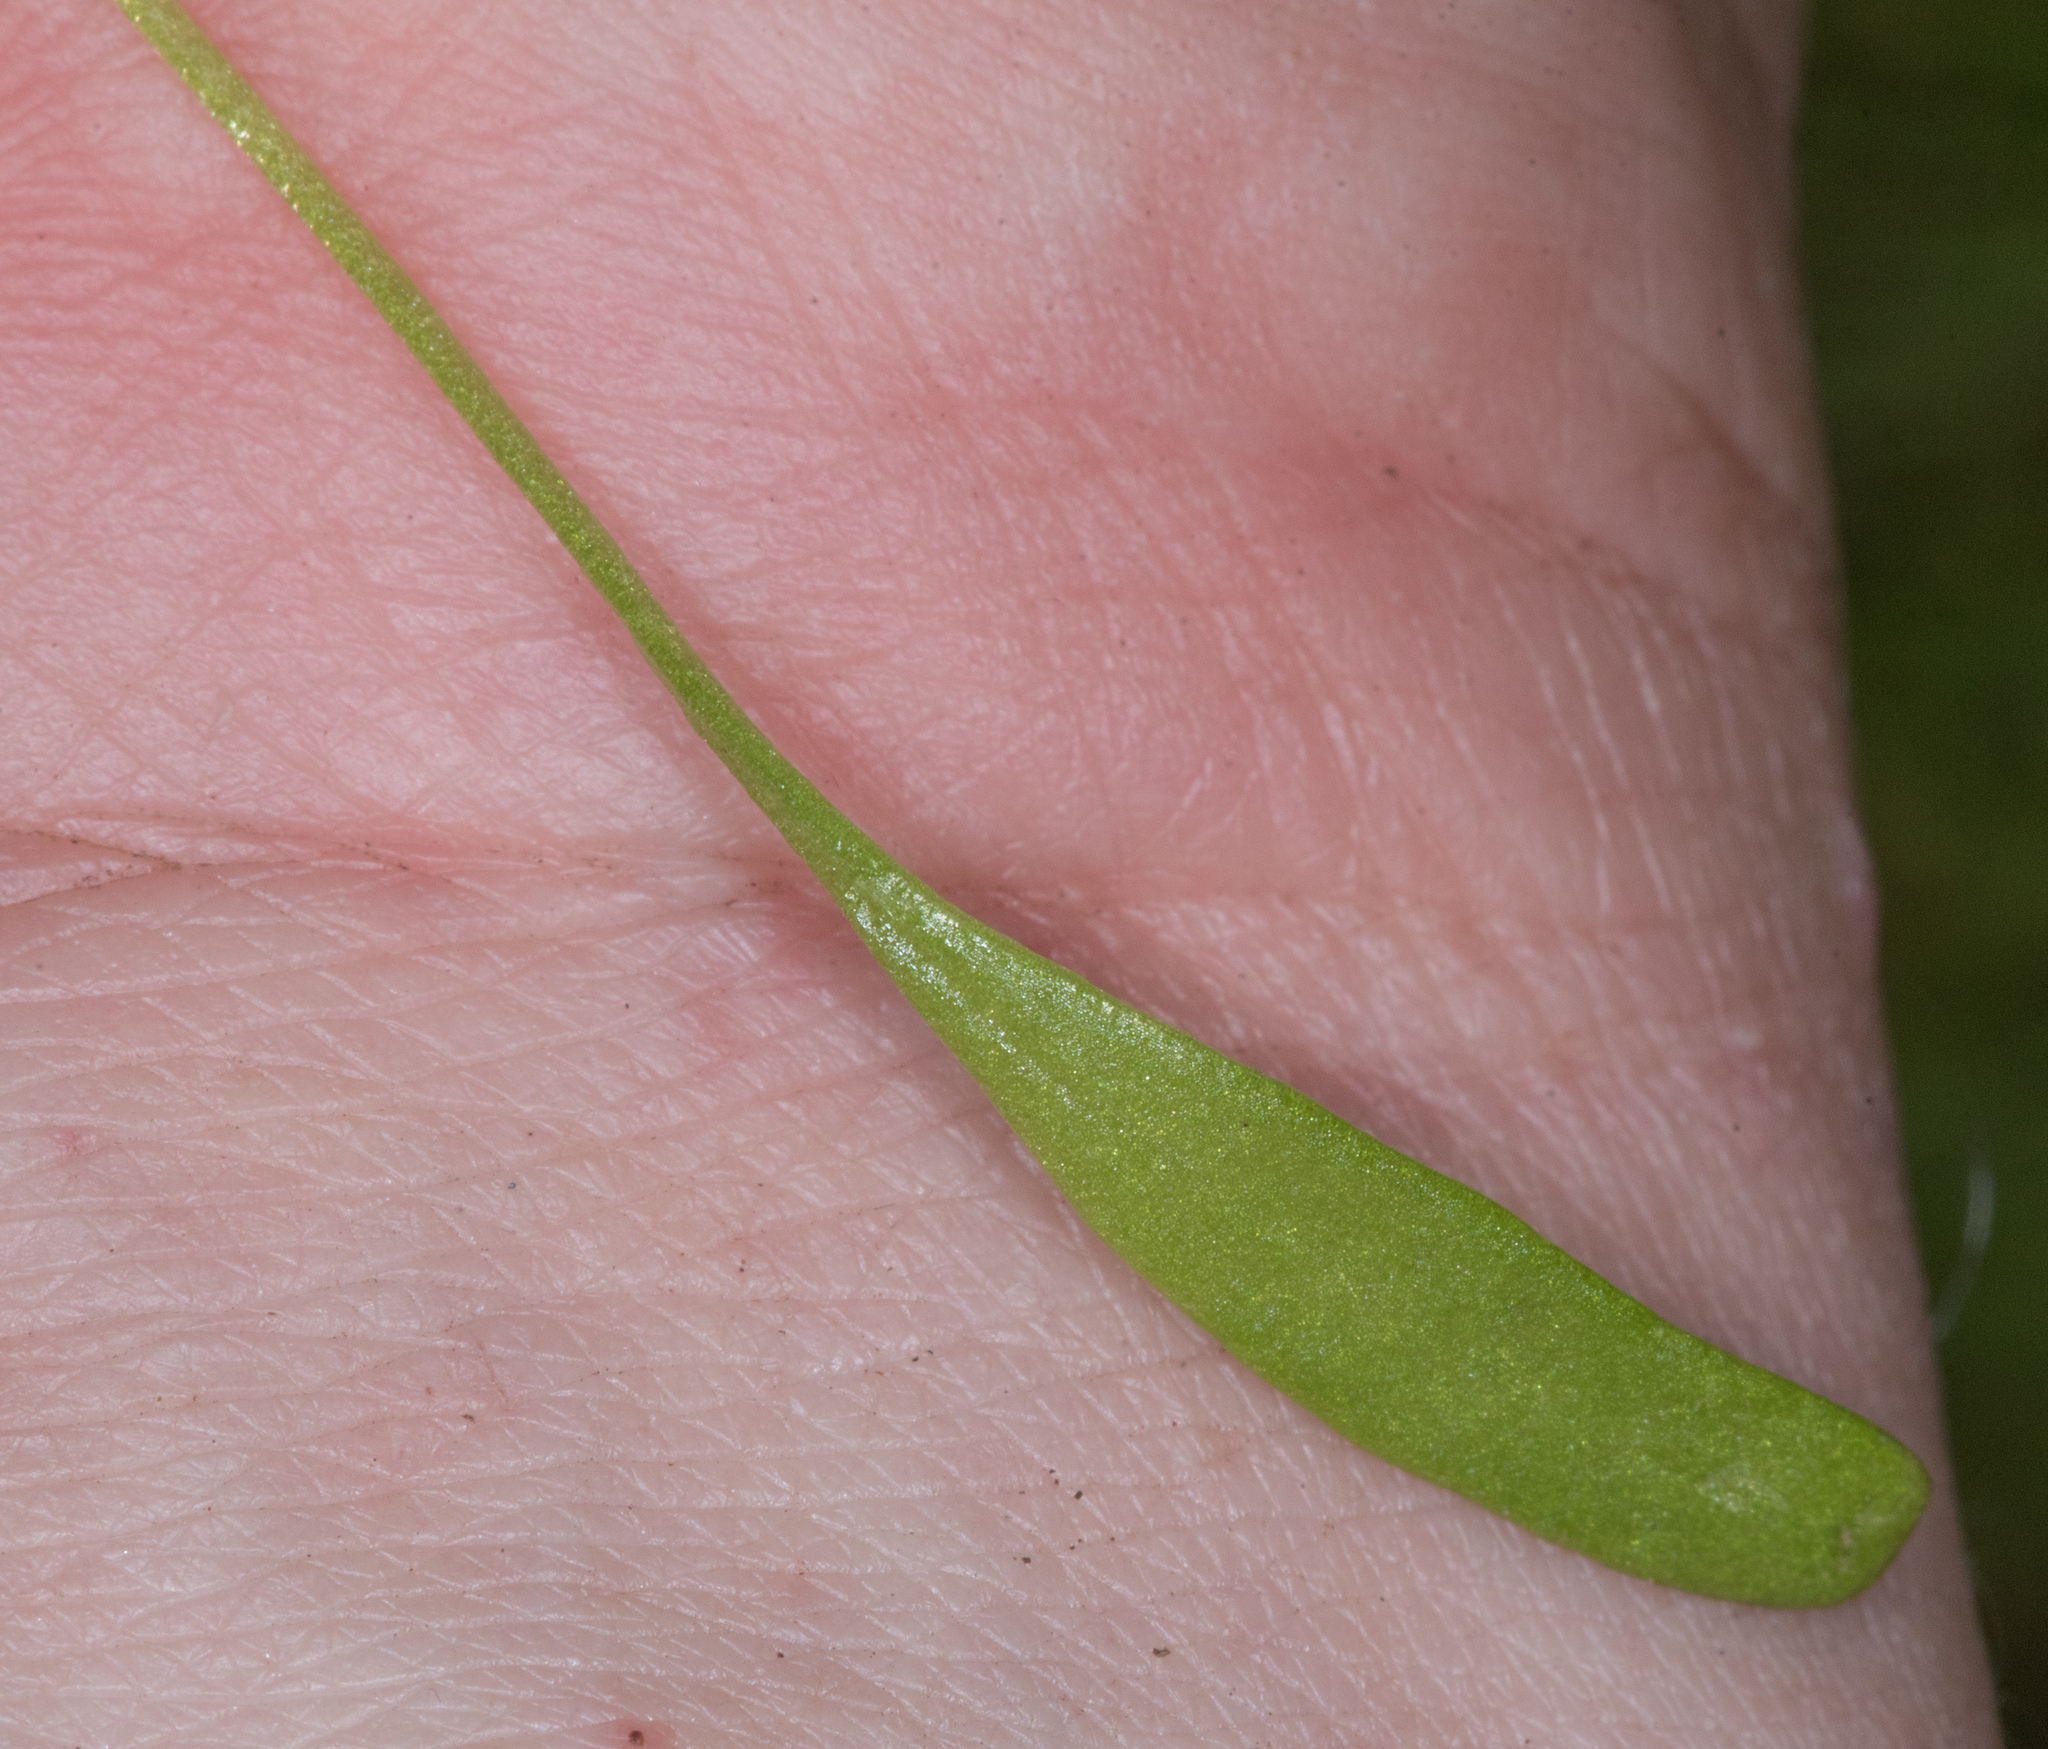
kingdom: Plantae
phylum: Tracheophyta
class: Magnoliopsida
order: Caryophyllales
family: Montiaceae
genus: Claytonia
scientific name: Claytonia parviflora
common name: Indian-lettuce
